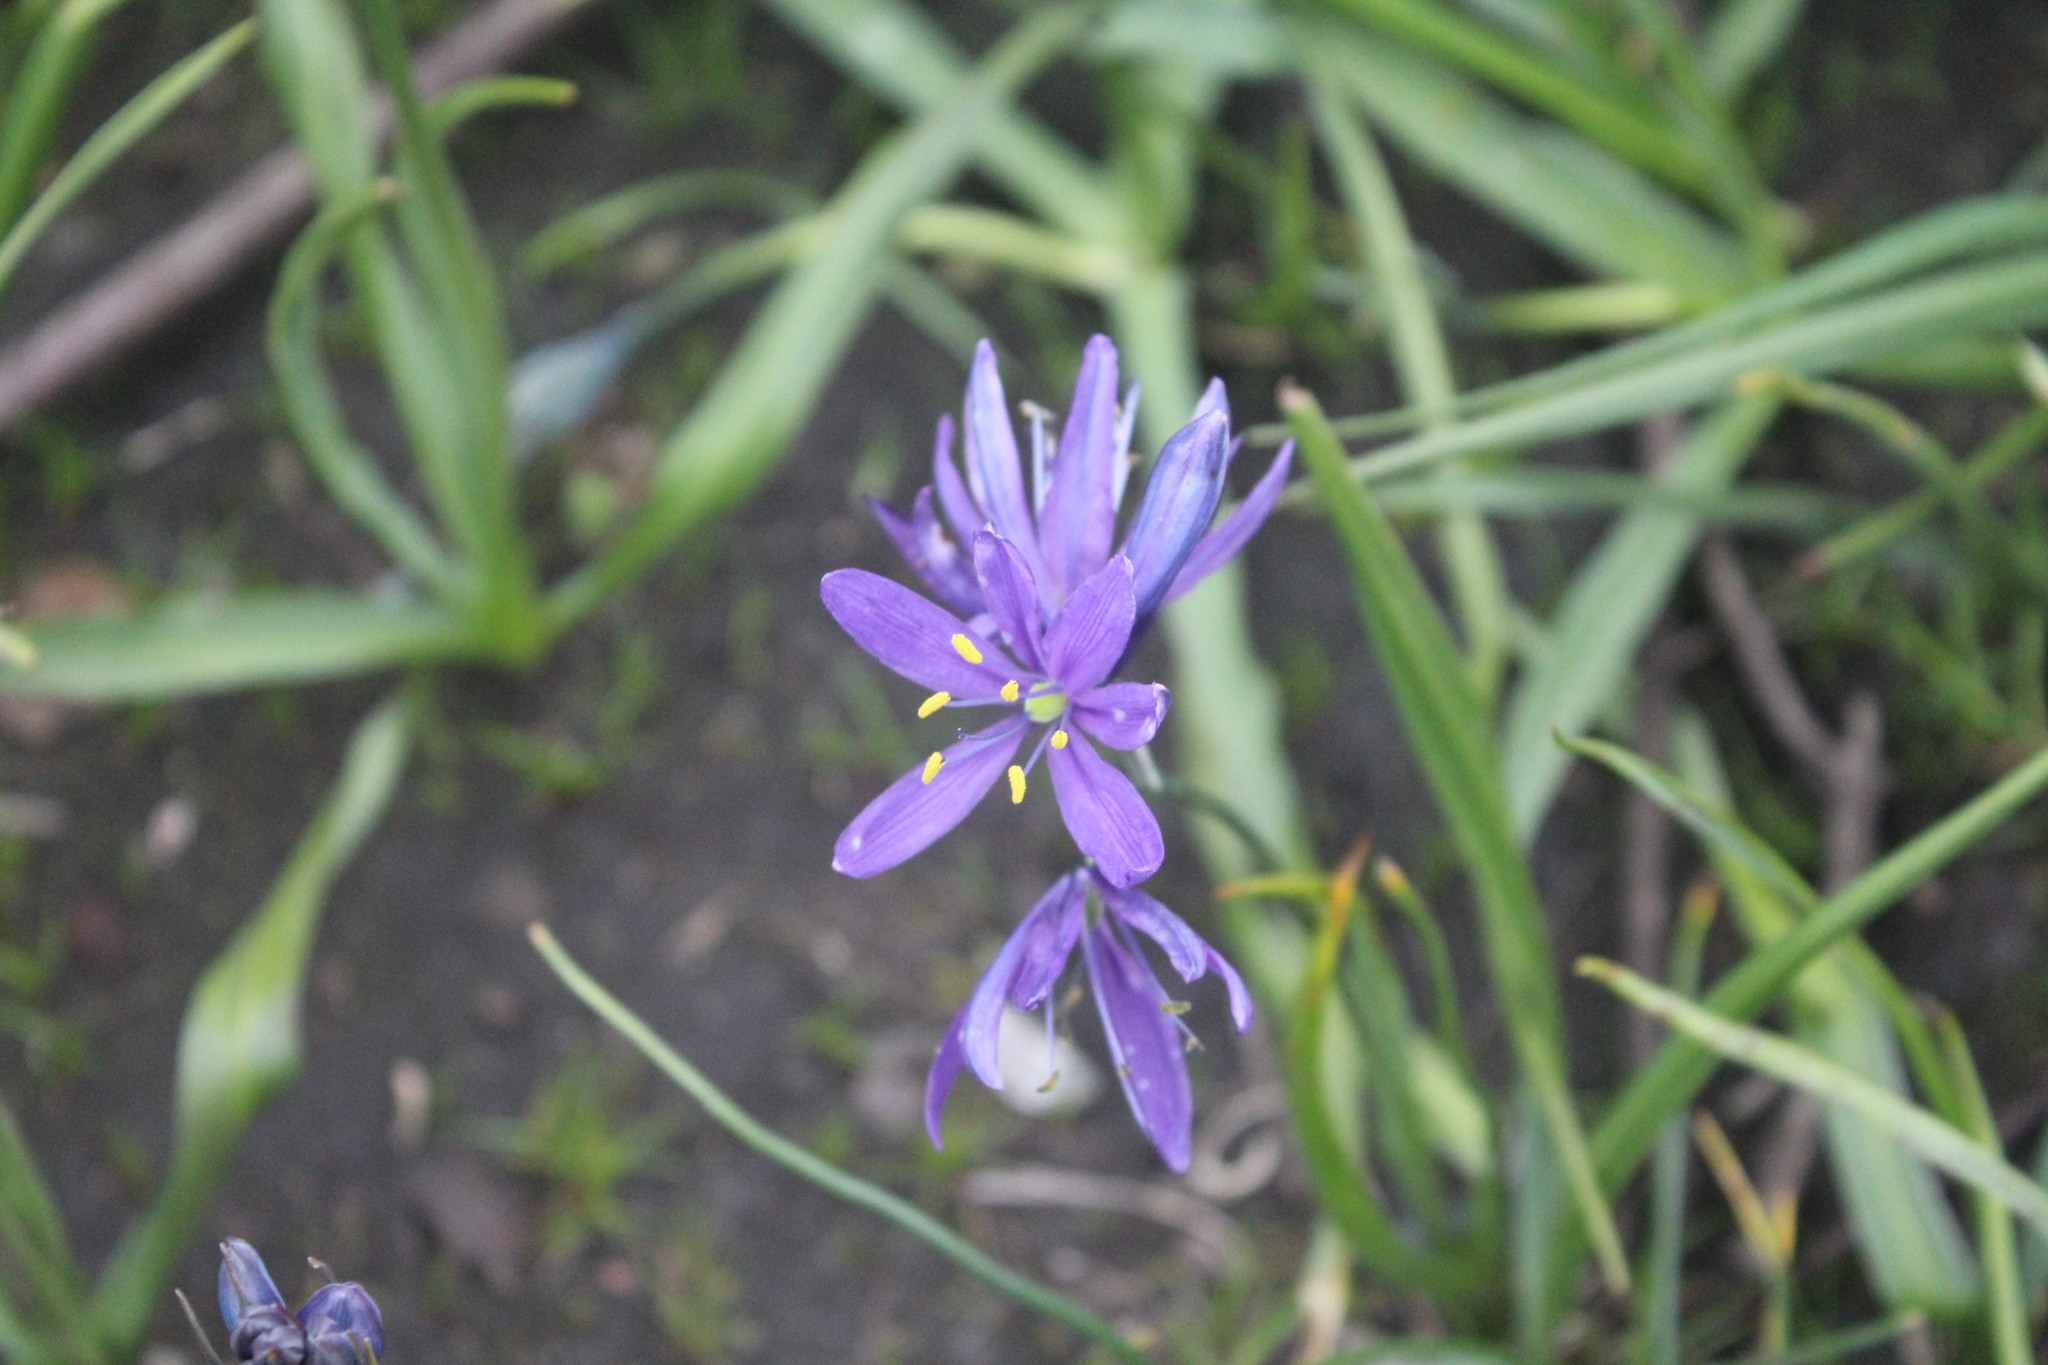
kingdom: Plantae
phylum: Tracheophyta
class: Liliopsida
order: Asparagales
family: Asparagaceae
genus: Camassia
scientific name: Camassia leichtlinii
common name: Leichtlin's camas
